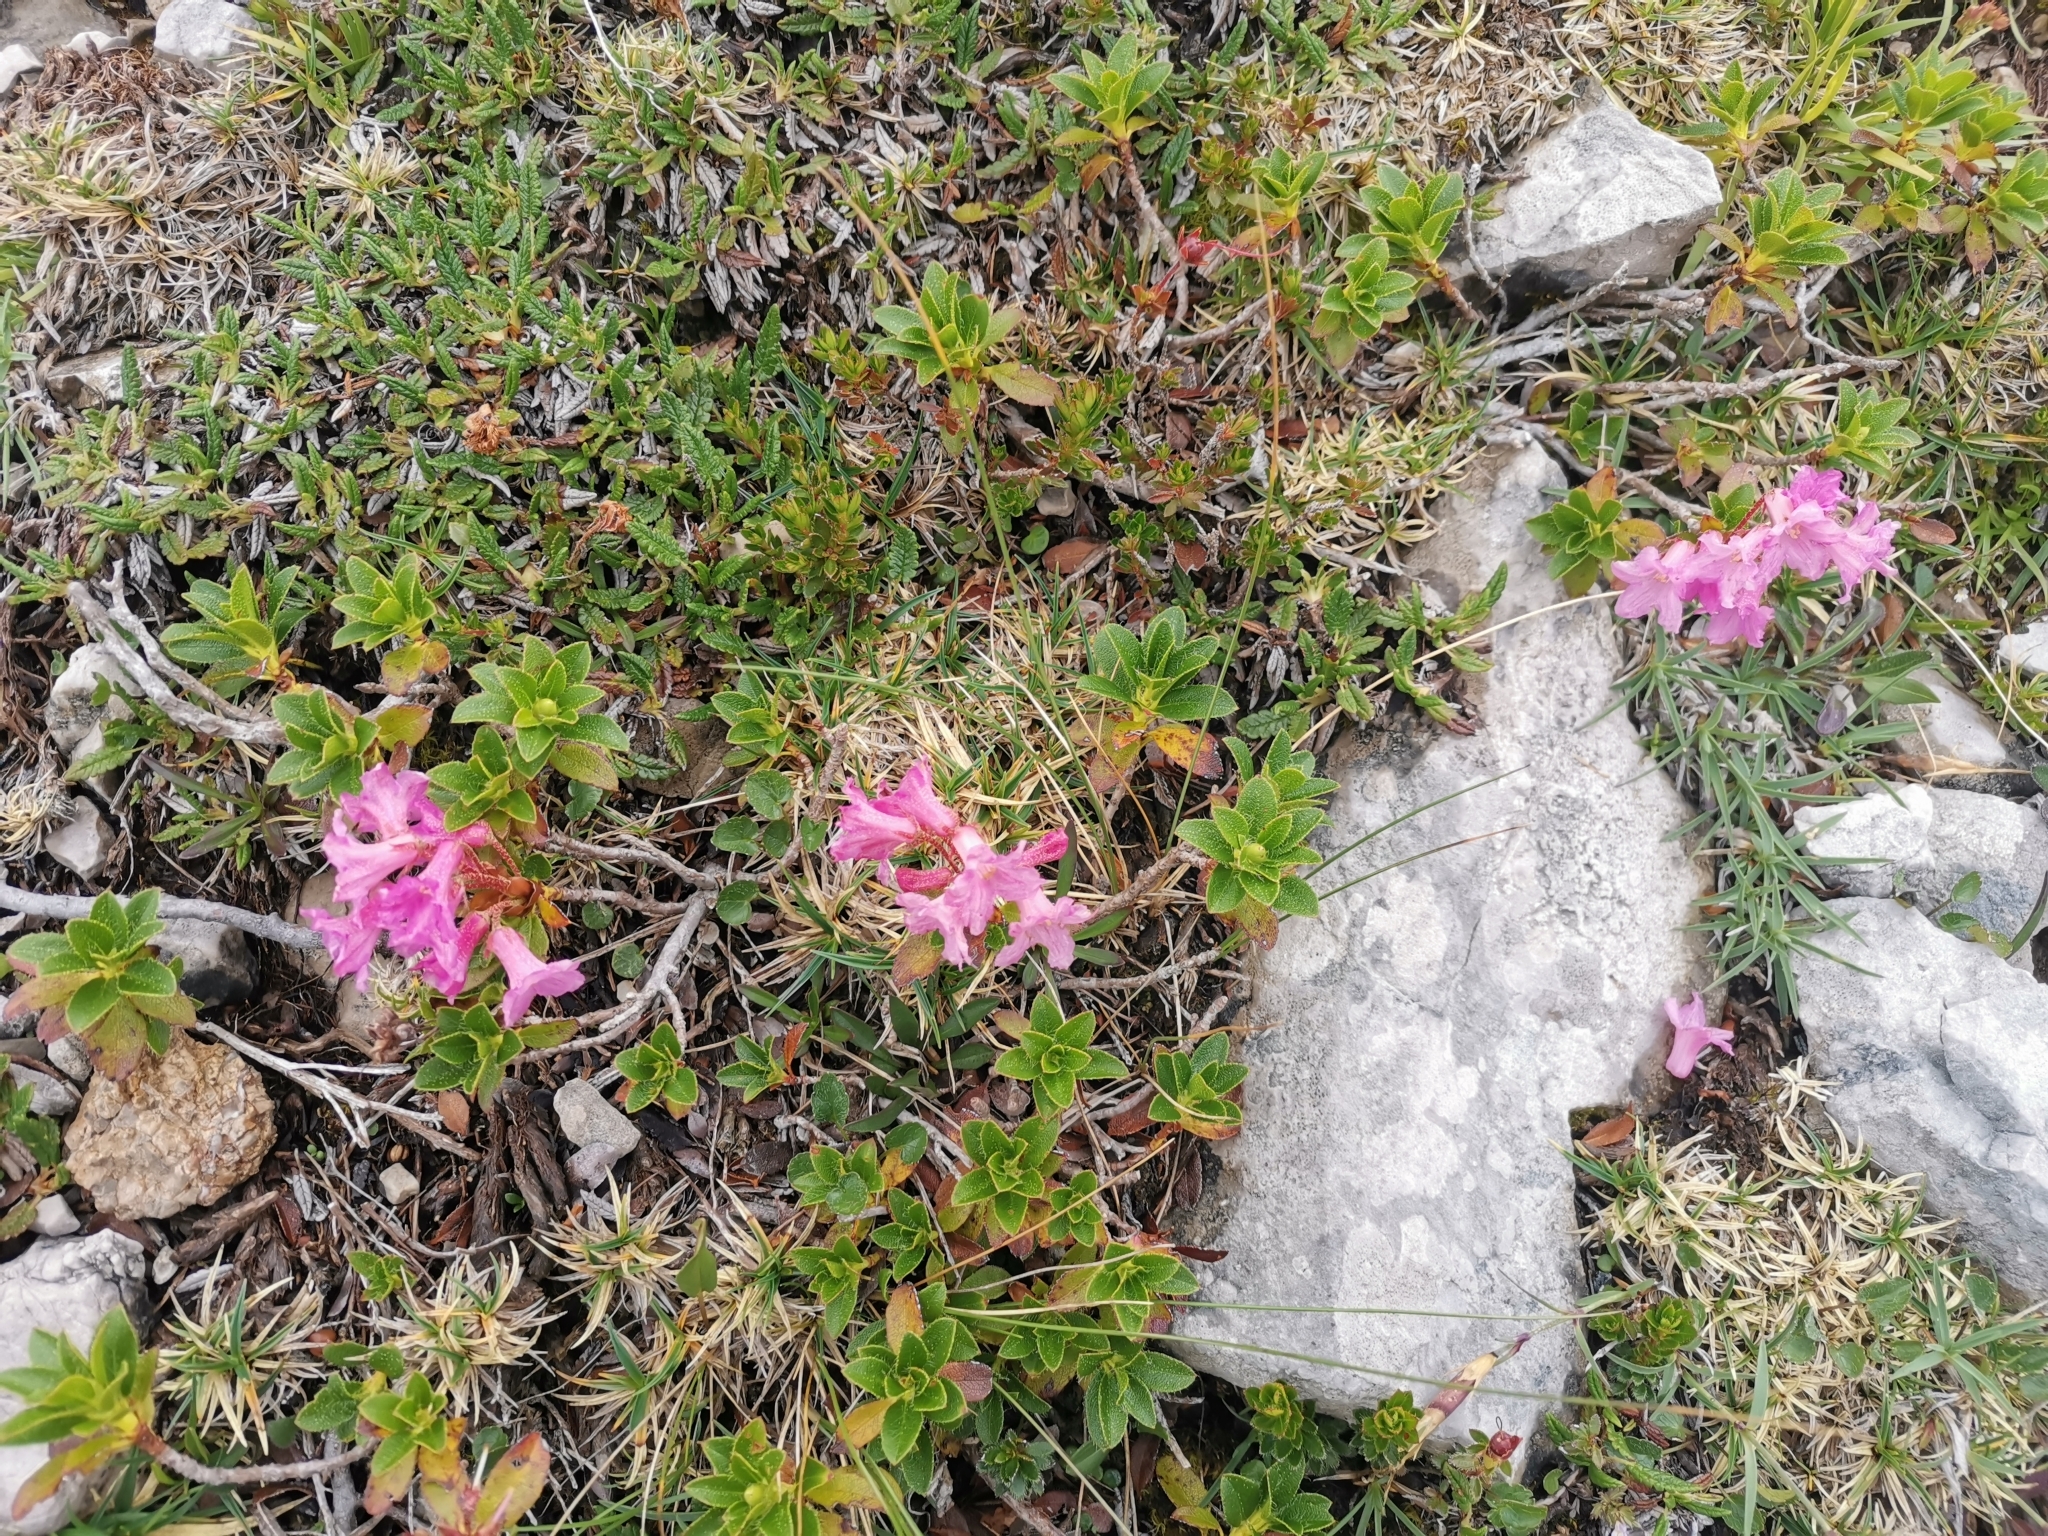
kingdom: Plantae
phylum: Tracheophyta
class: Magnoliopsida
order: Ericales
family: Ericaceae
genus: Rhododendron
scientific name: Rhododendron hirsutum
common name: Hairy alpenrose
